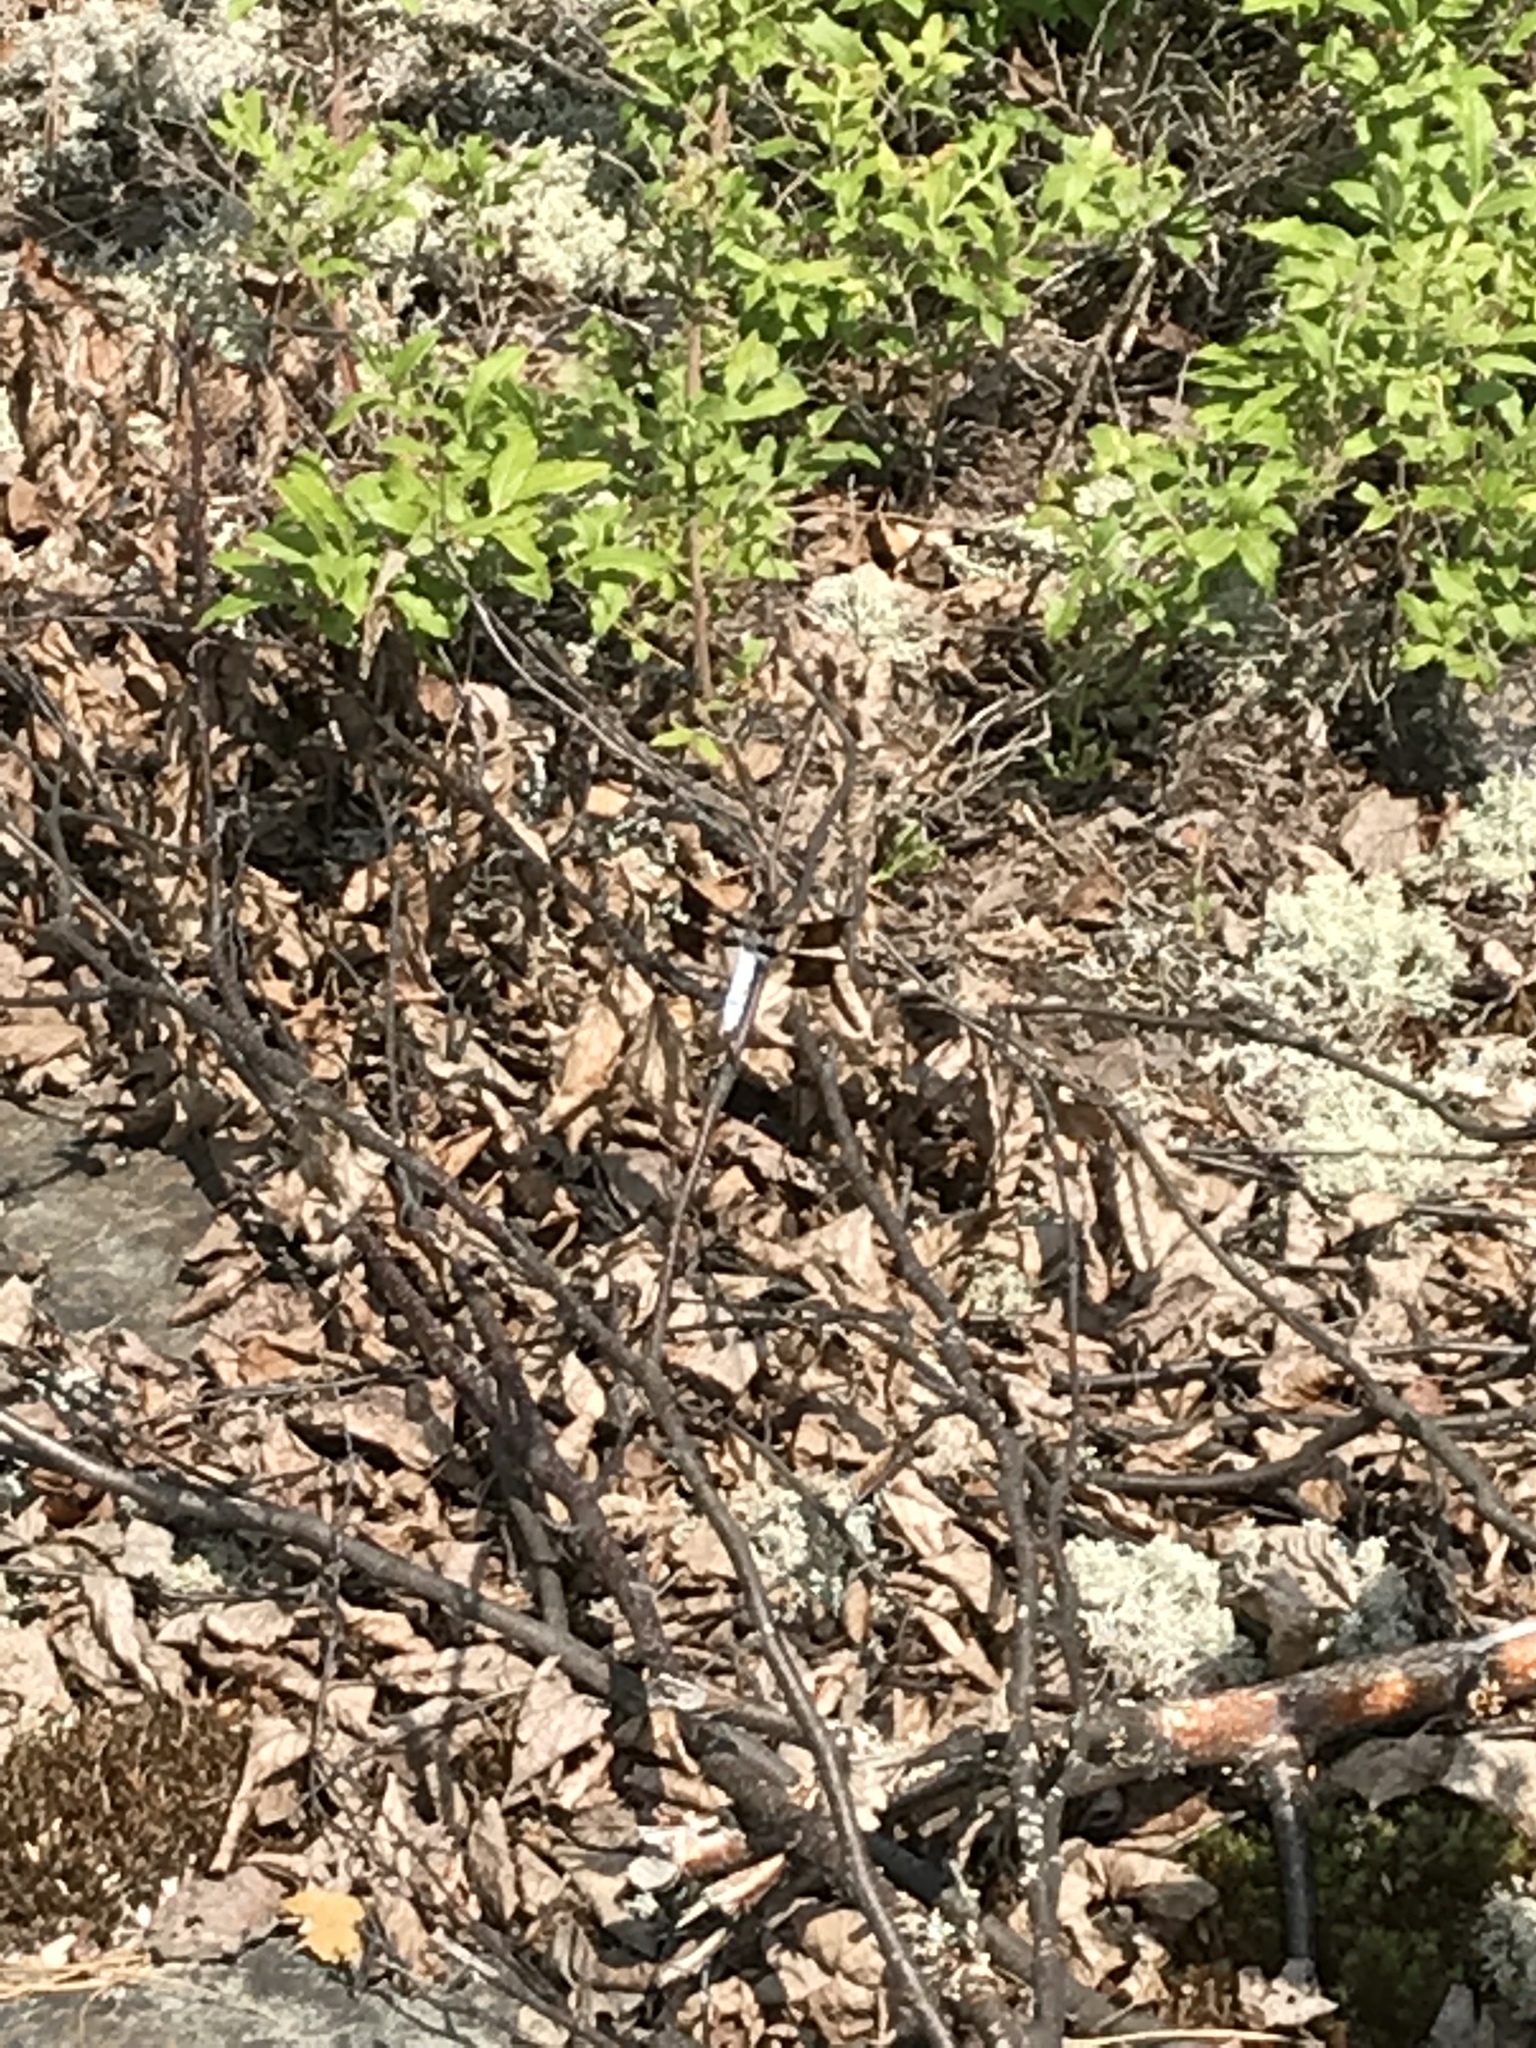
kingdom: Animalia
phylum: Arthropoda
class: Insecta
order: Odonata
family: Libellulidae
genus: Plathemis
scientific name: Plathemis lydia
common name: Common whitetail
